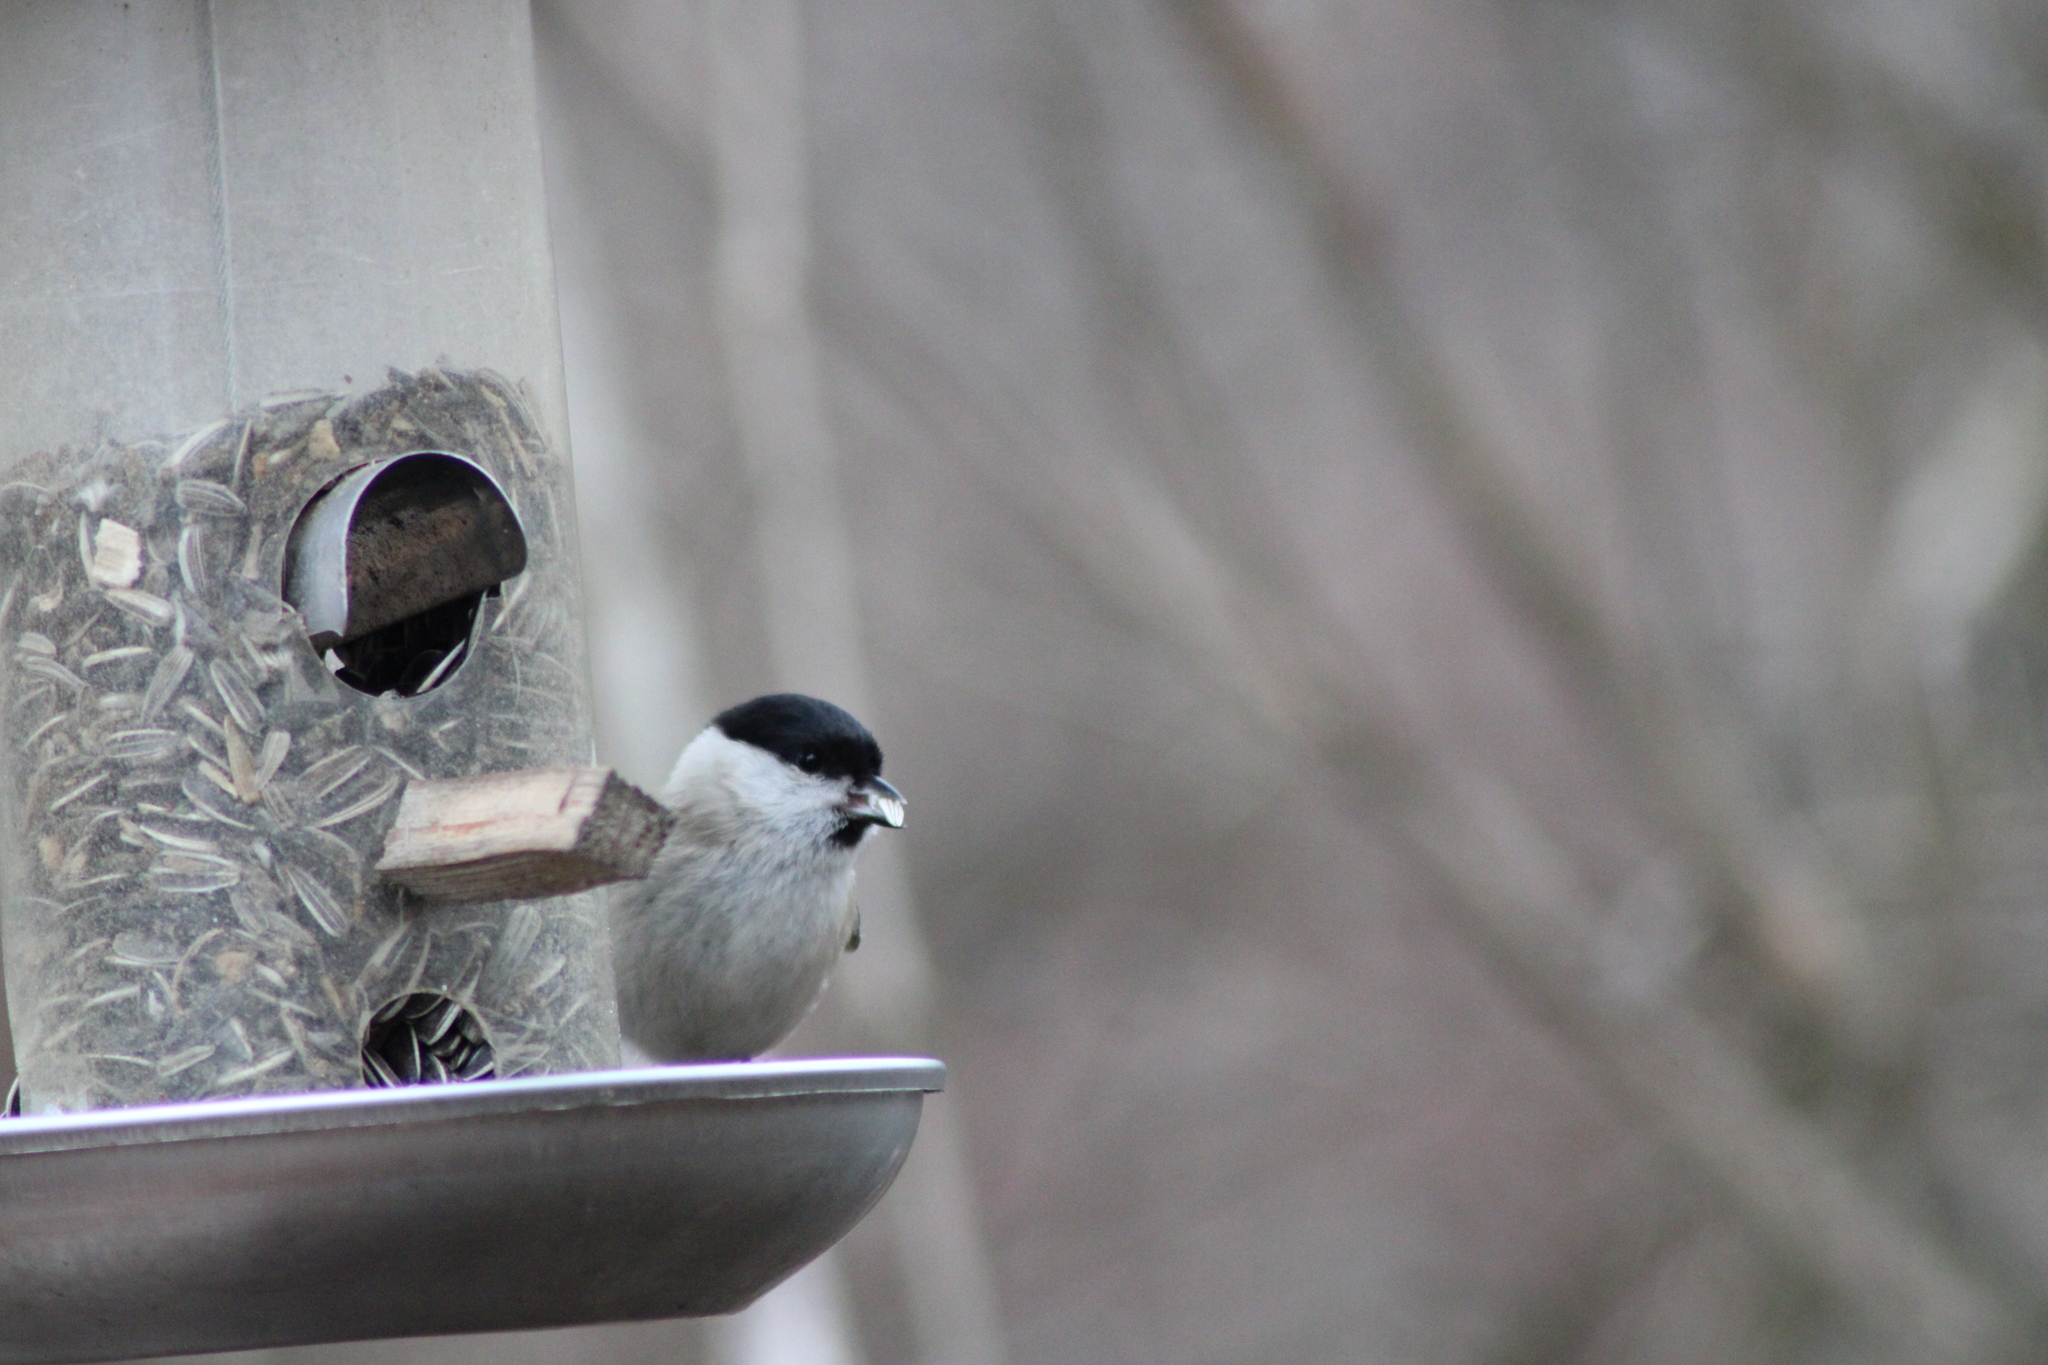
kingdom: Animalia
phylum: Chordata
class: Aves
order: Passeriformes
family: Paridae
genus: Poecile
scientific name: Poecile palustris
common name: Marsh tit
